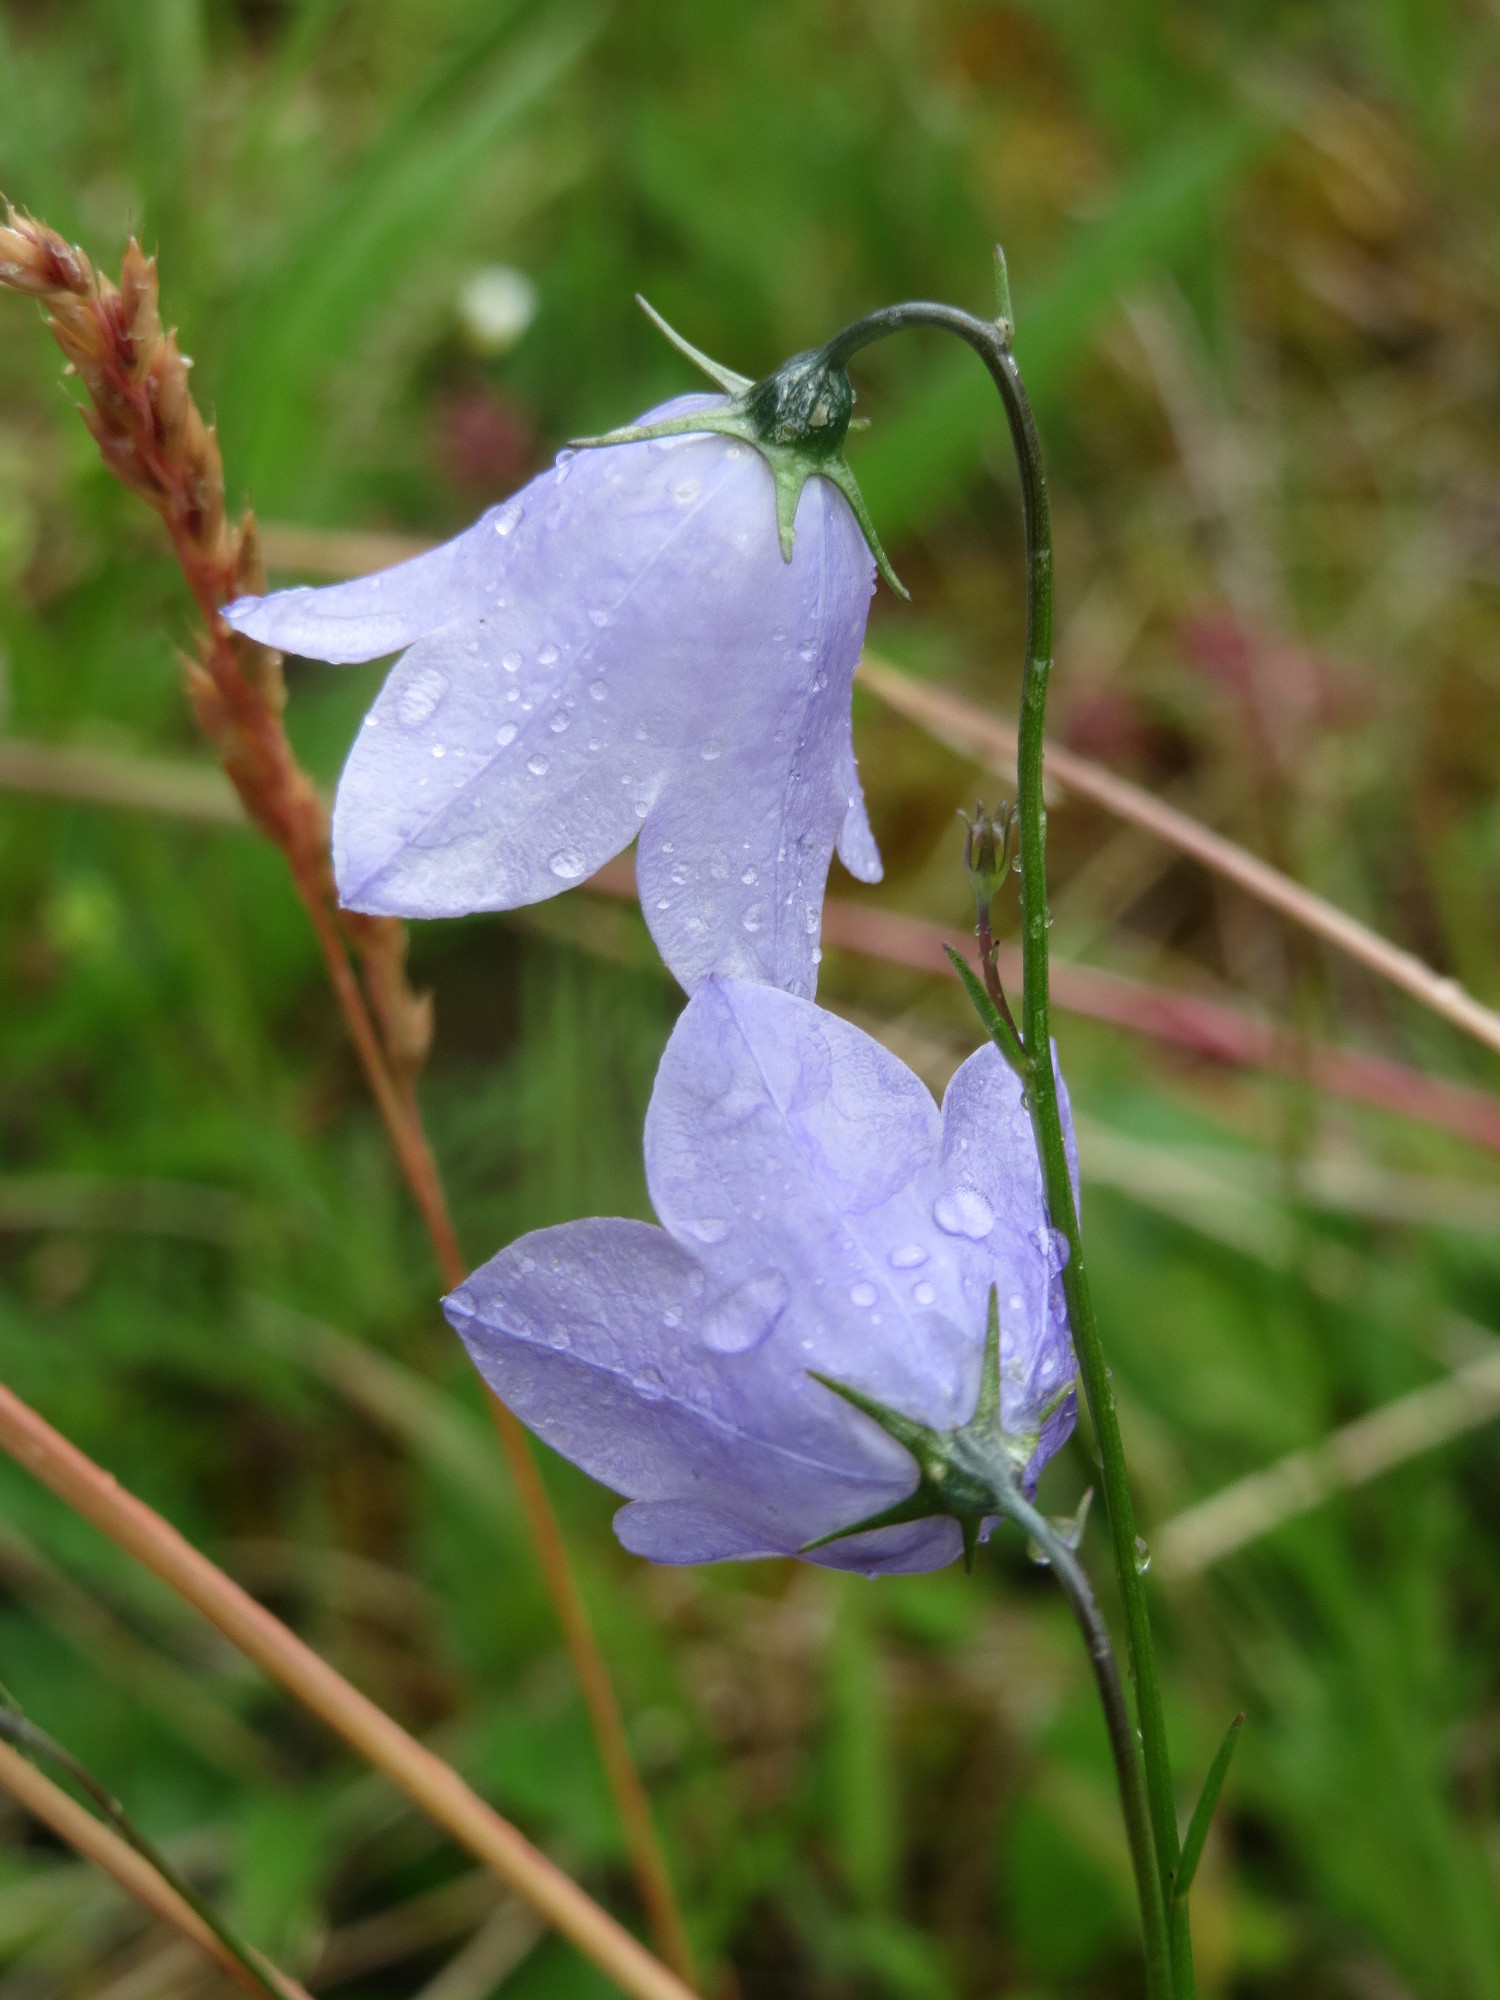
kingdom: Plantae
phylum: Tracheophyta
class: Magnoliopsida
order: Asterales
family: Campanulaceae
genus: Campanula
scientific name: Campanula rotundifolia
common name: Harebell
